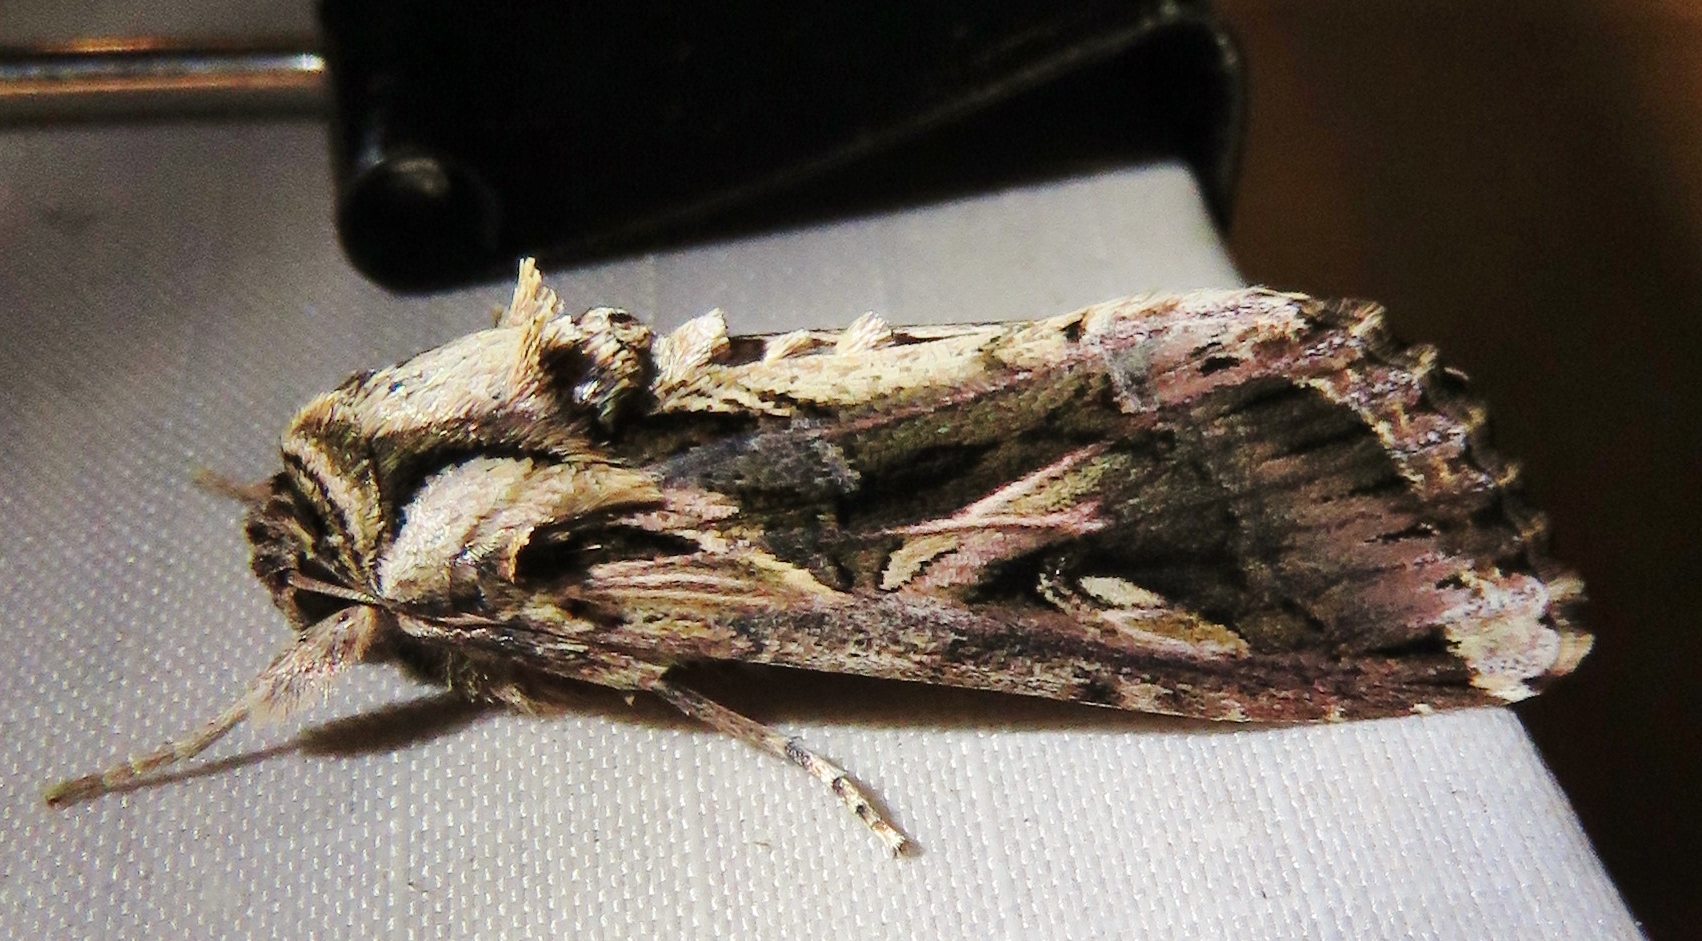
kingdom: Animalia
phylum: Arthropoda
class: Insecta
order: Lepidoptera
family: Noctuidae
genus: Spodoptera
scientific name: Spodoptera dolichos
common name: Sweetpotato armyworm
